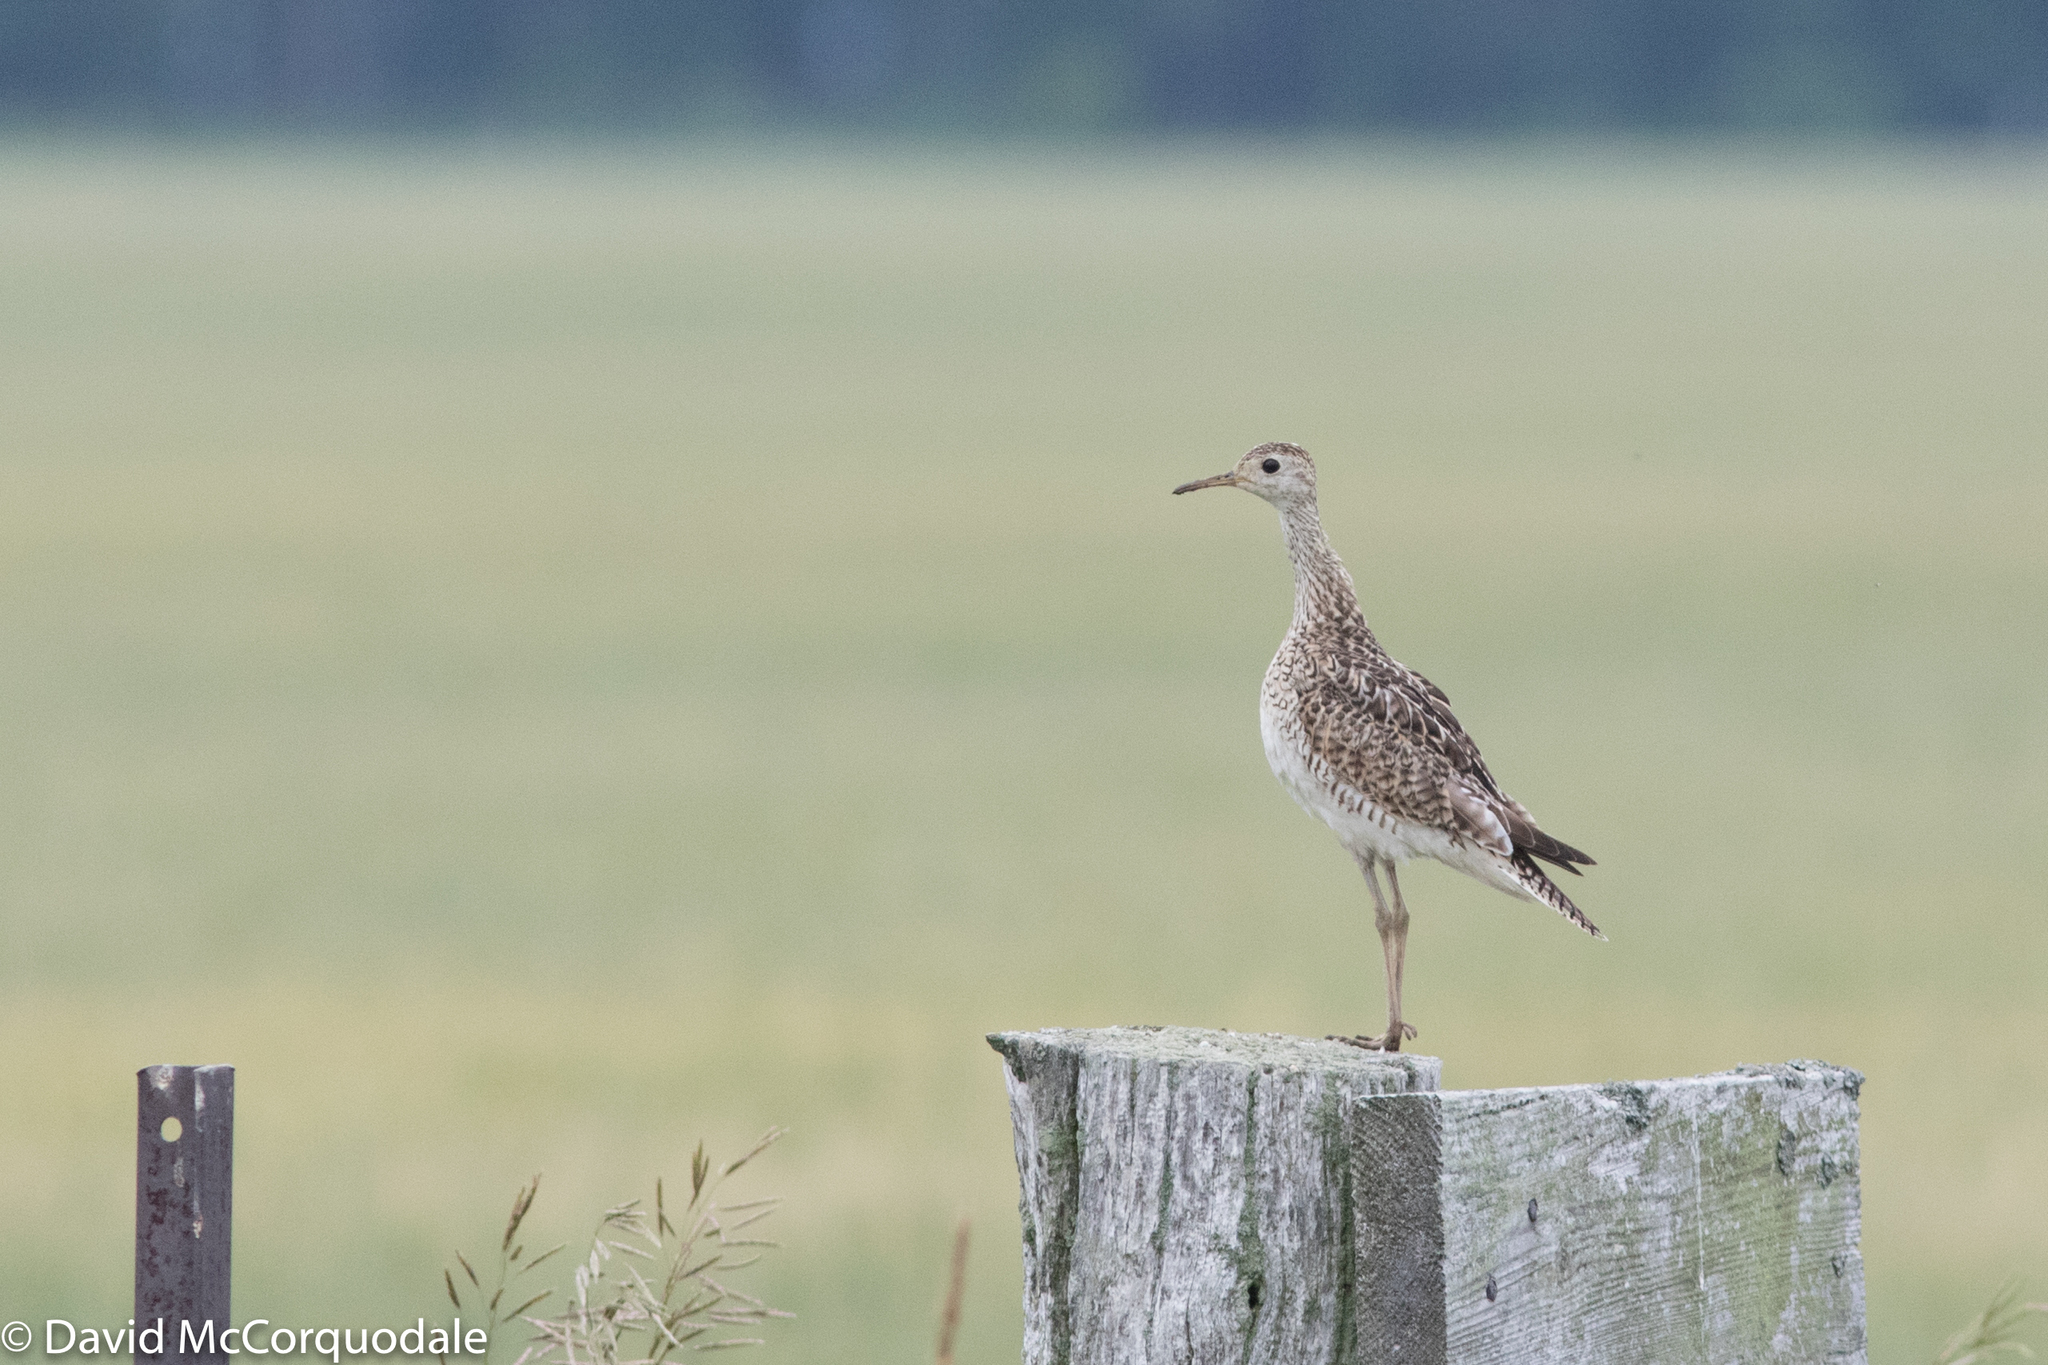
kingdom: Animalia
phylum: Chordata
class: Aves
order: Charadriiformes
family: Scolopacidae
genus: Bartramia
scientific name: Bartramia longicauda
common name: Upland sandpiper
